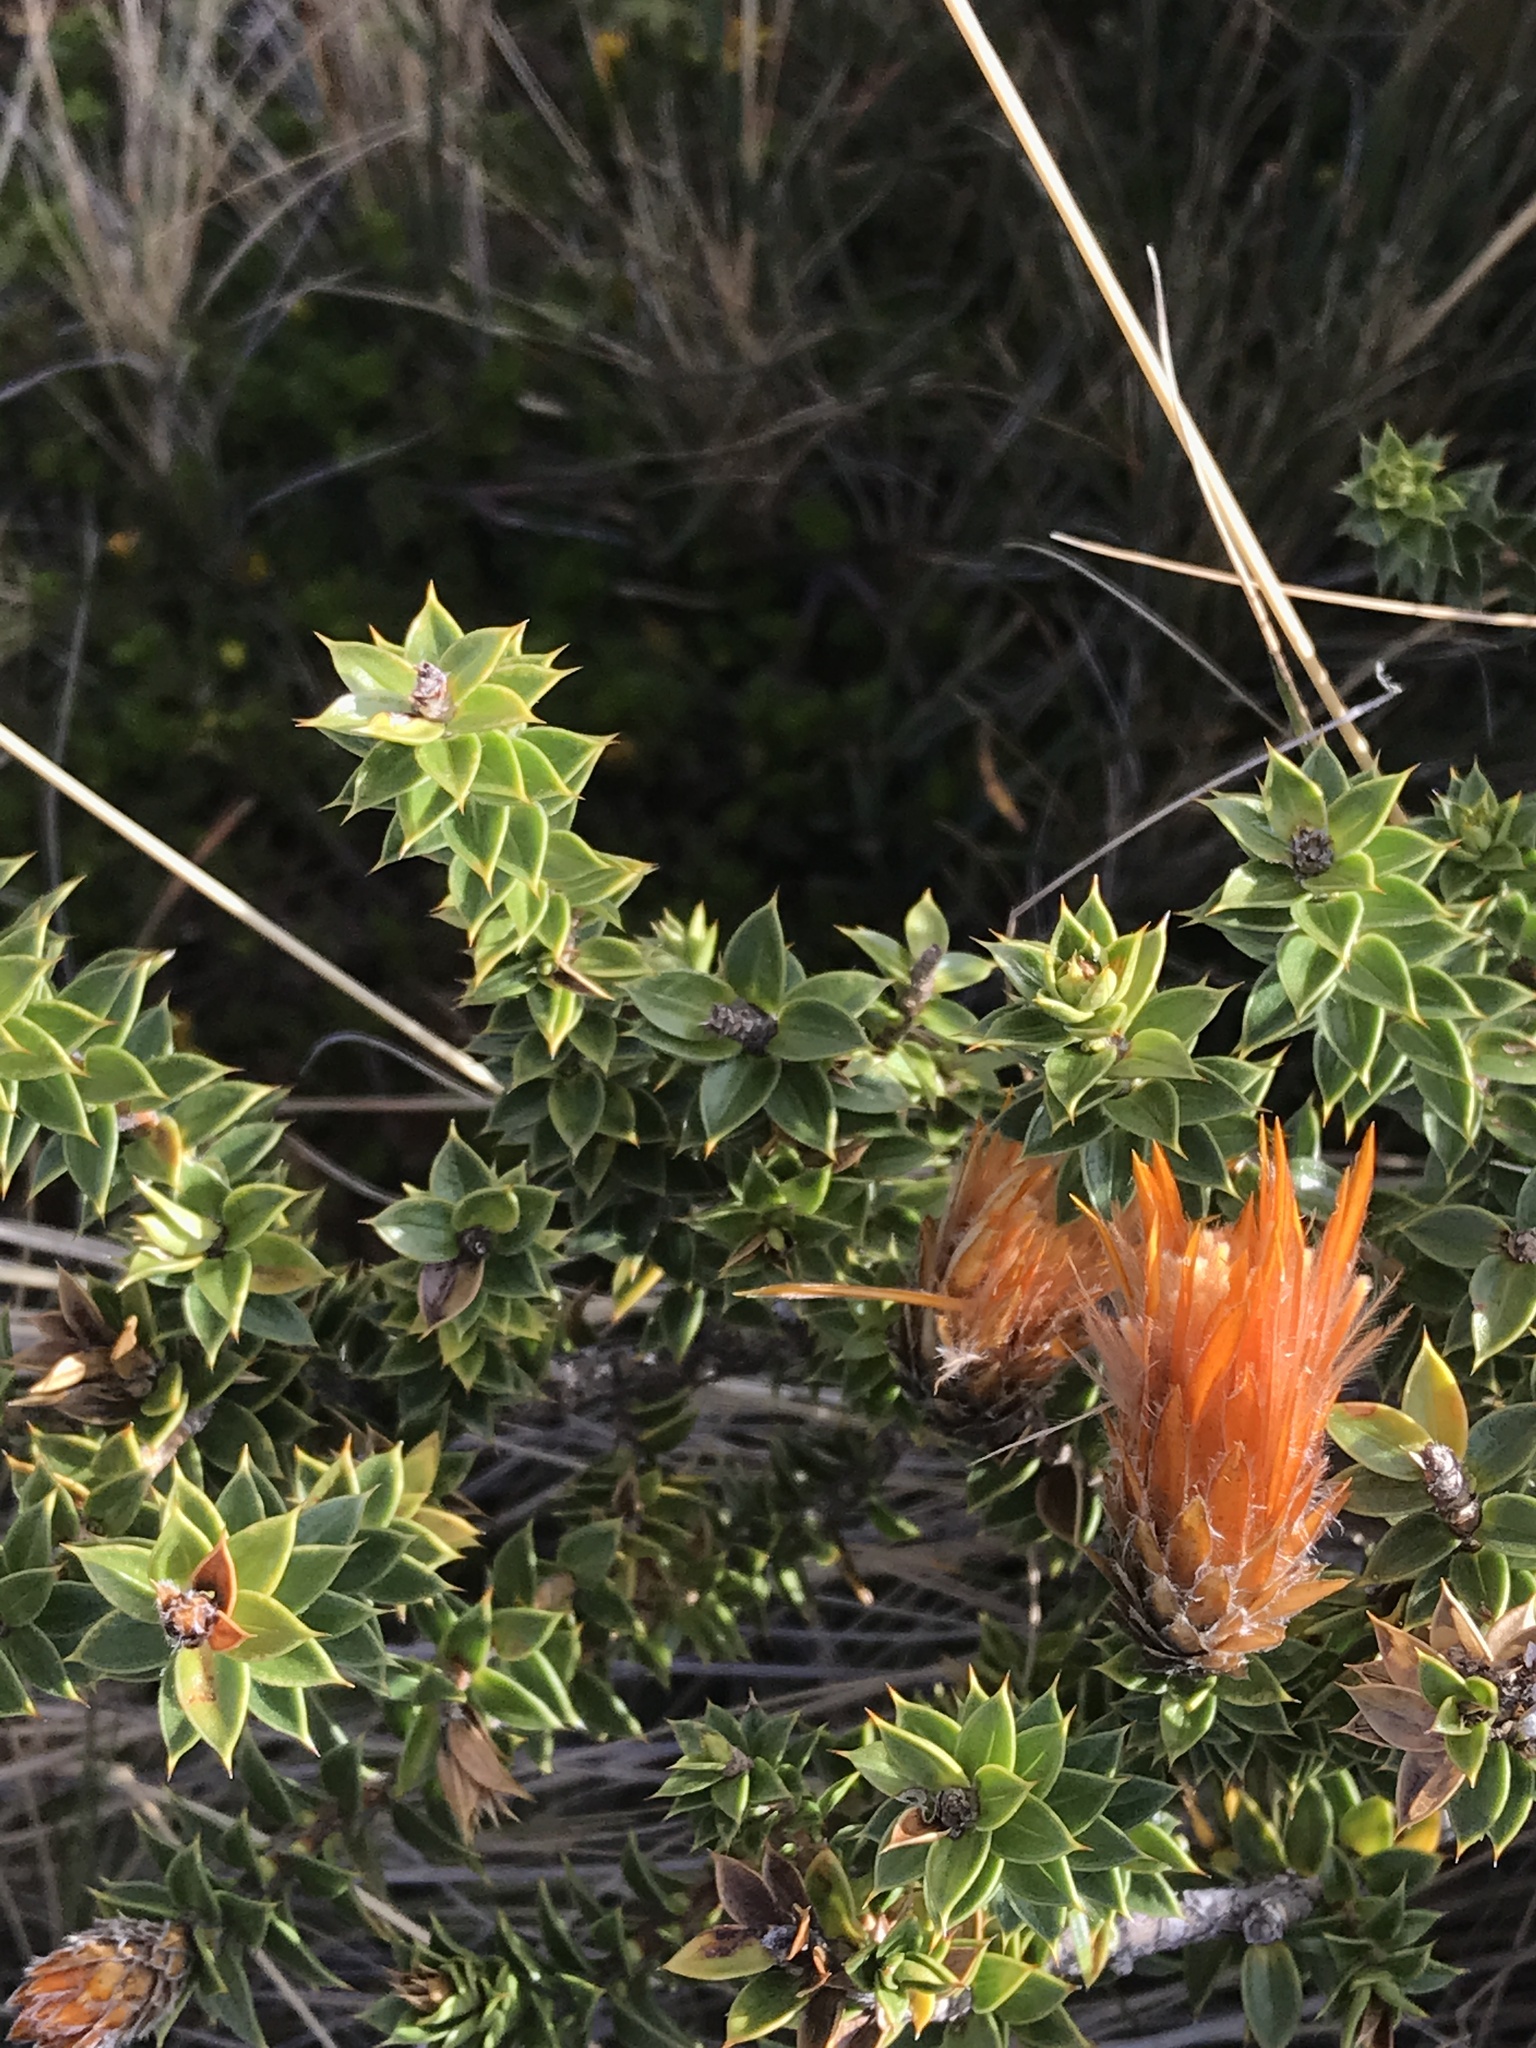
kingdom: Plantae
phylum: Tracheophyta
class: Magnoliopsida
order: Asterales
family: Asteraceae
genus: Chuquiraga
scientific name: Chuquiraga jussieui
